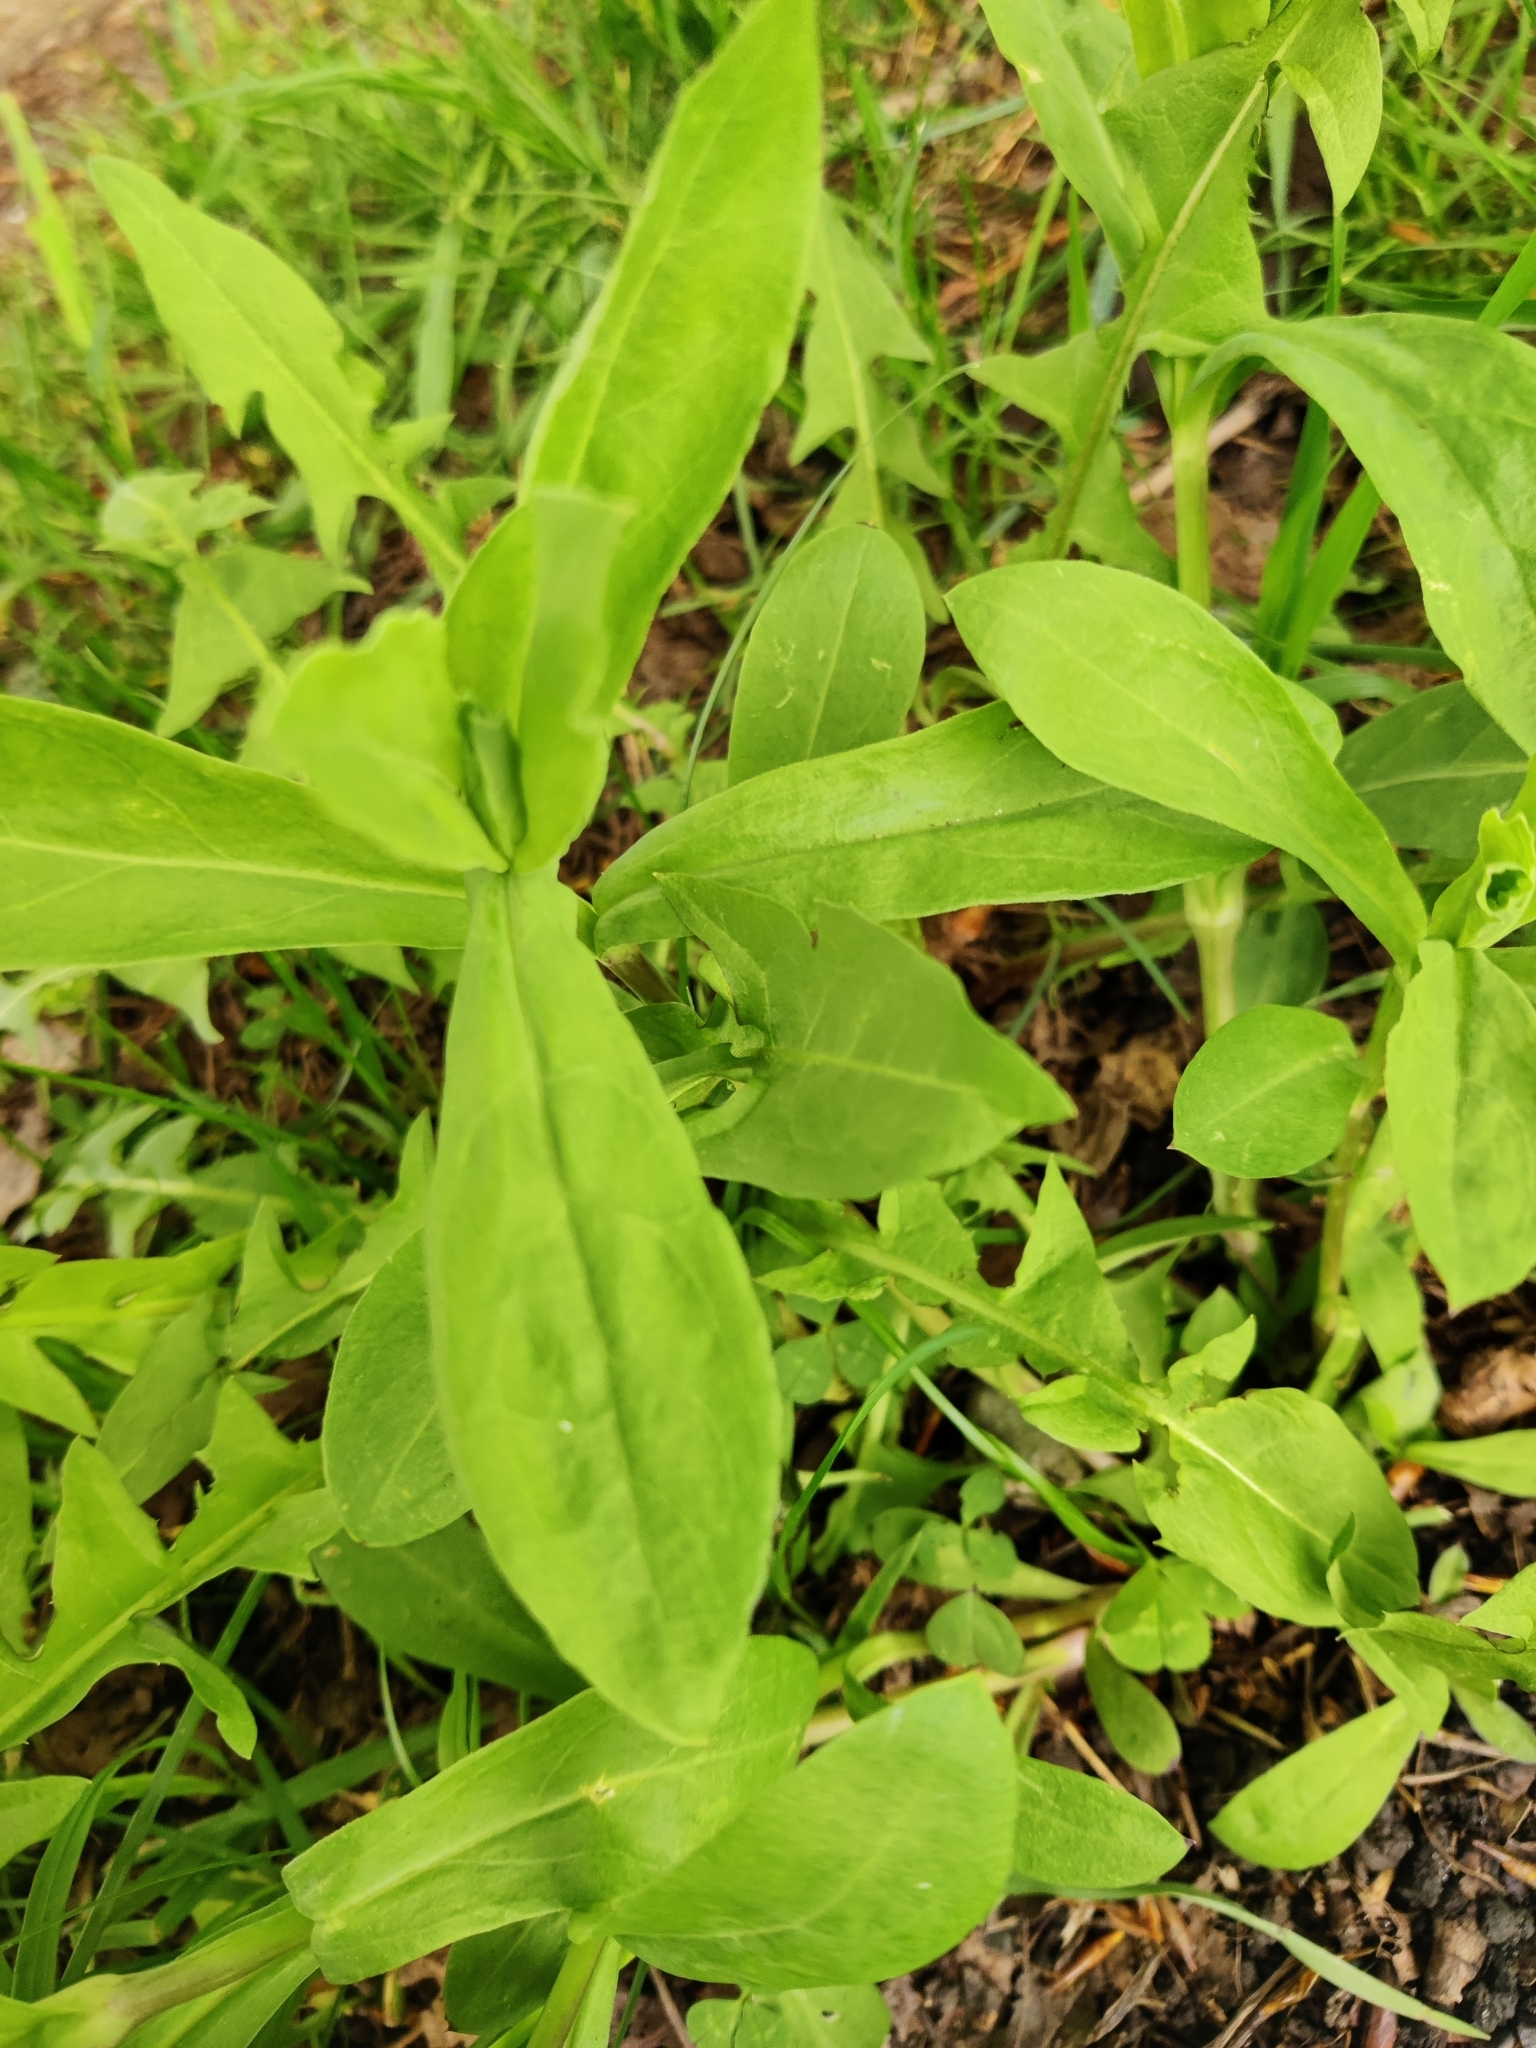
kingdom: Plantae
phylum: Tracheophyta
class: Magnoliopsida
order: Caryophyllales
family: Caryophyllaceae
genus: Silene
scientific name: Silene vulgaris
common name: Bladder campion
